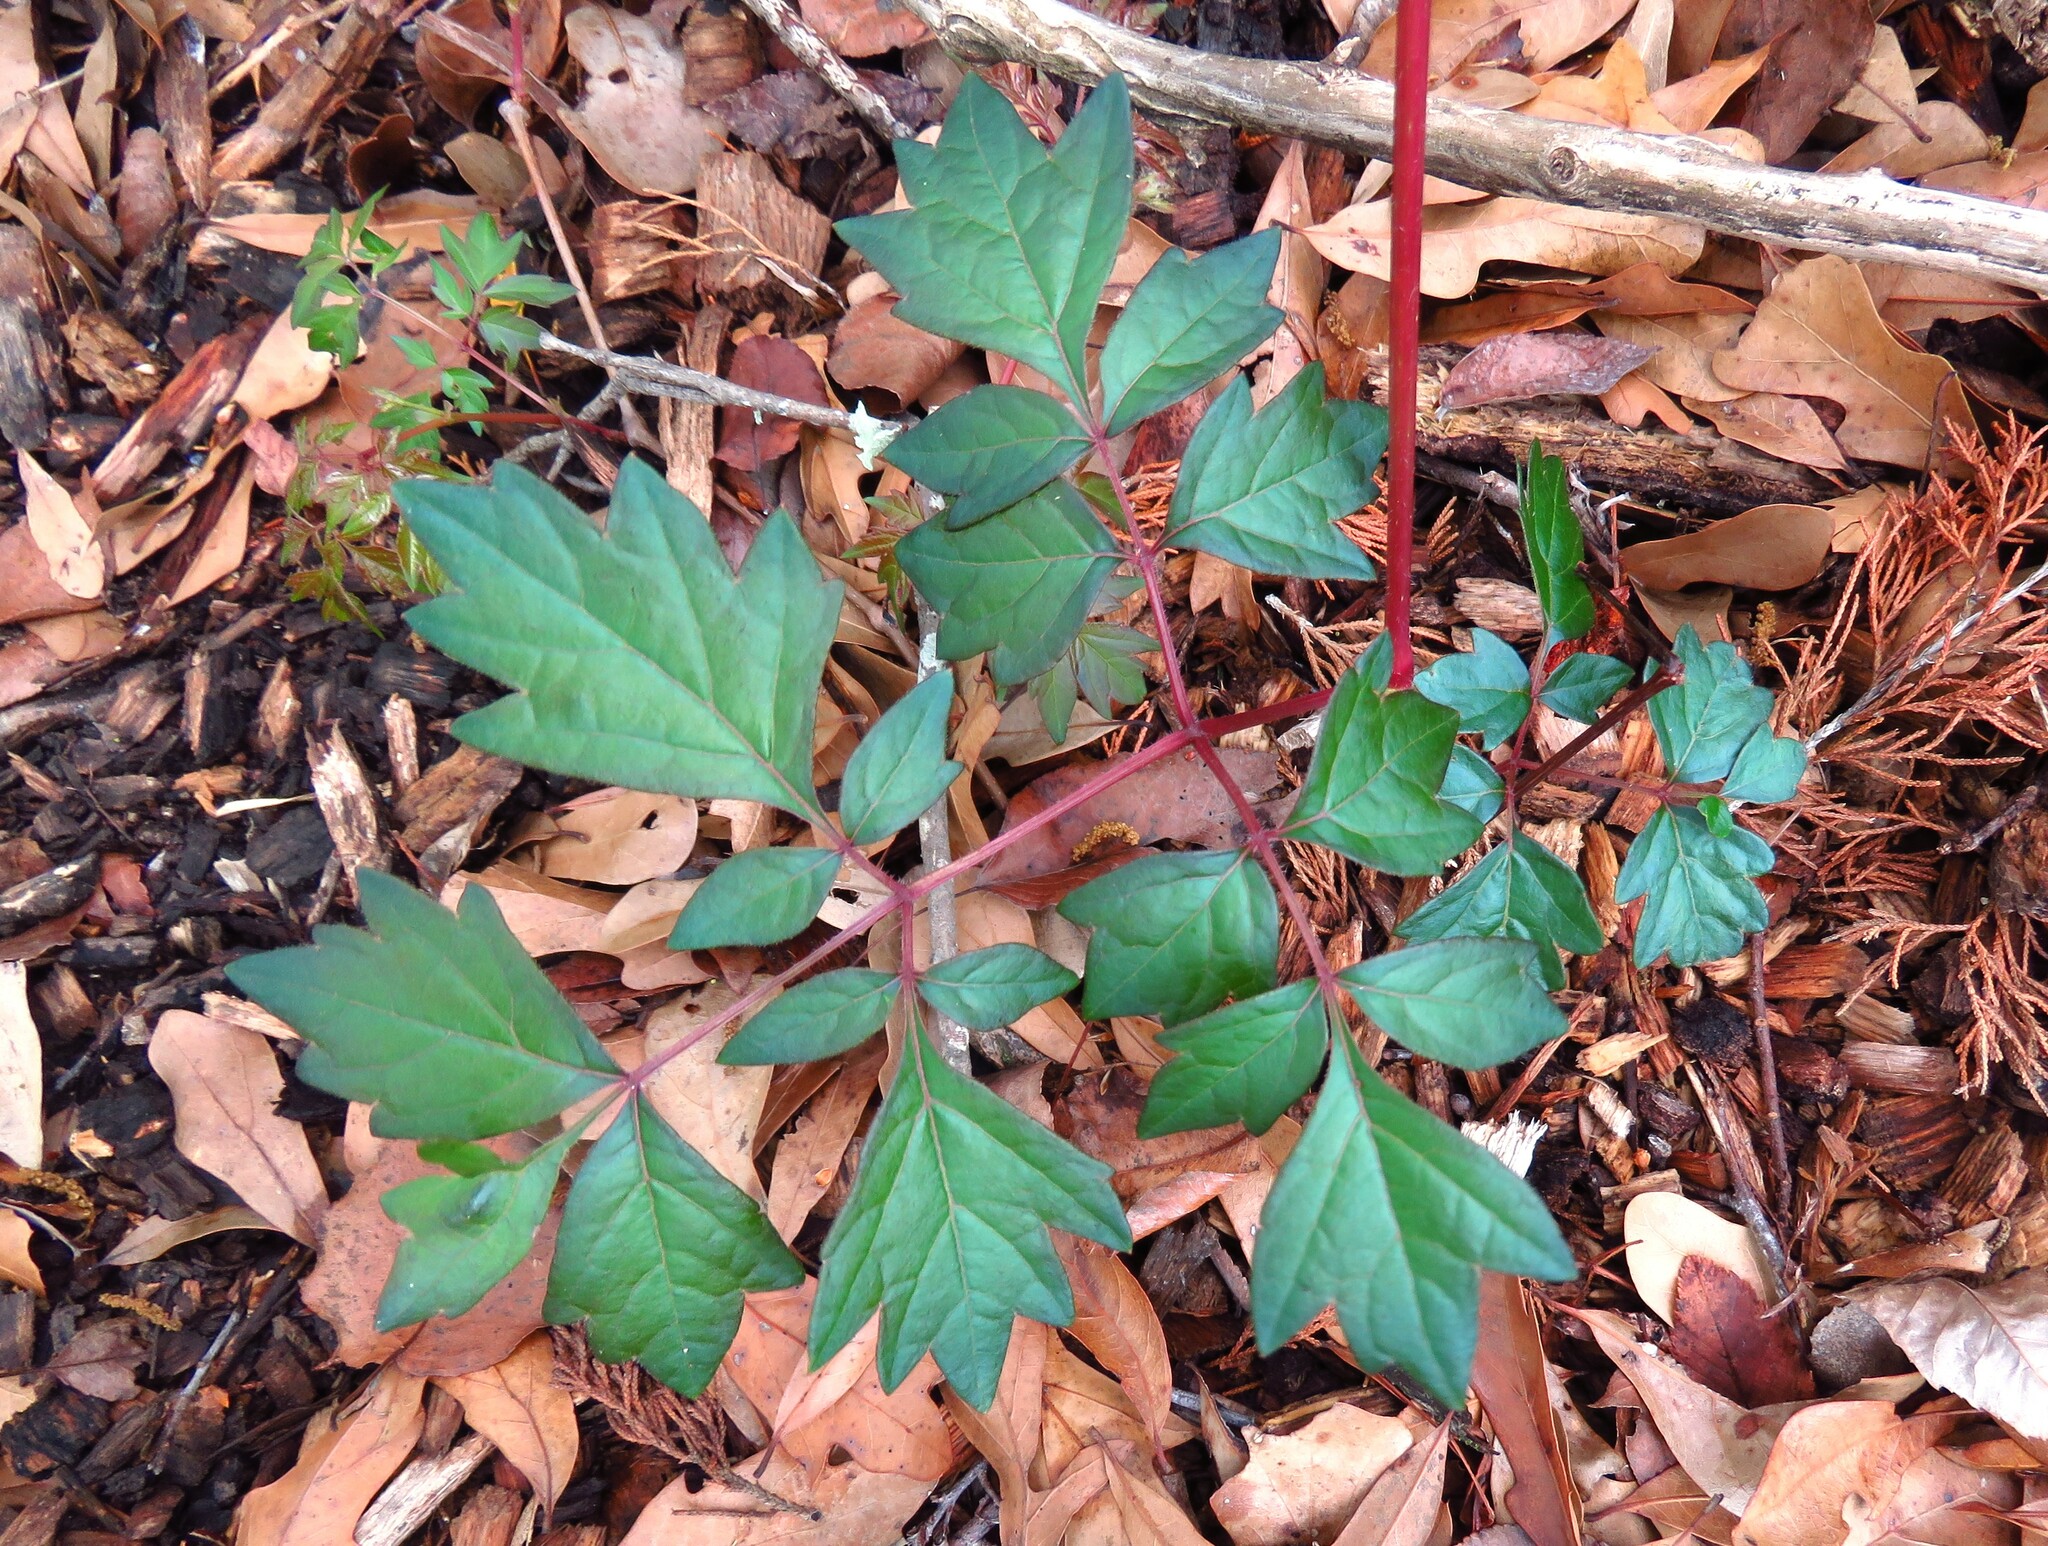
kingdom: Plantae
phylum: Tracheophyta
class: Magnoliopsida
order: Vitales
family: Vitaceae
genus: Nekemias
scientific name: Nekemias arborea
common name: Peppervine
